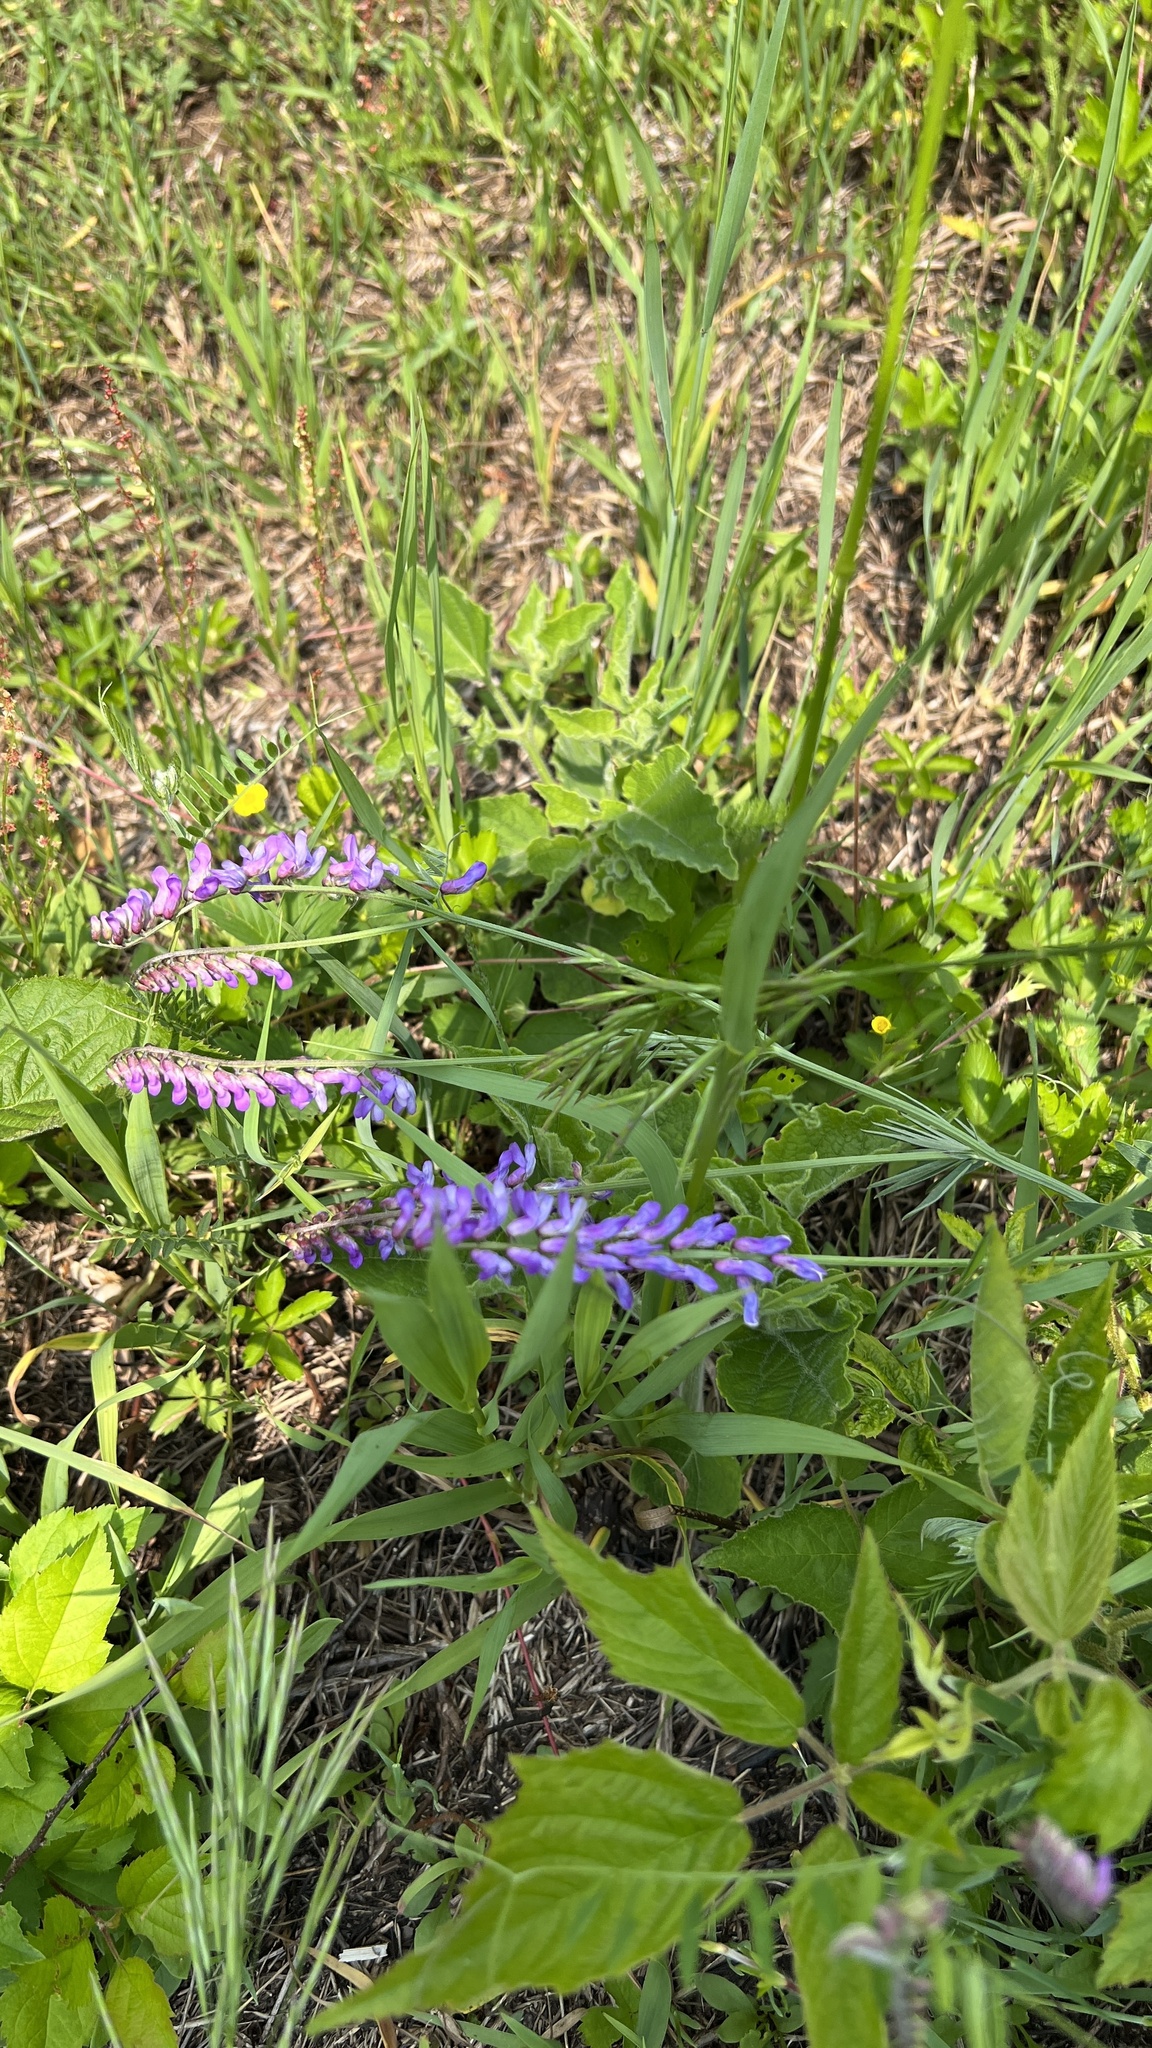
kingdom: Plantae
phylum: Tracheophyta
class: Magnoliopsida
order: Fabales
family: Fabaceae
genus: Vicia
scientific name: Vicia cracca
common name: Bird vetch
